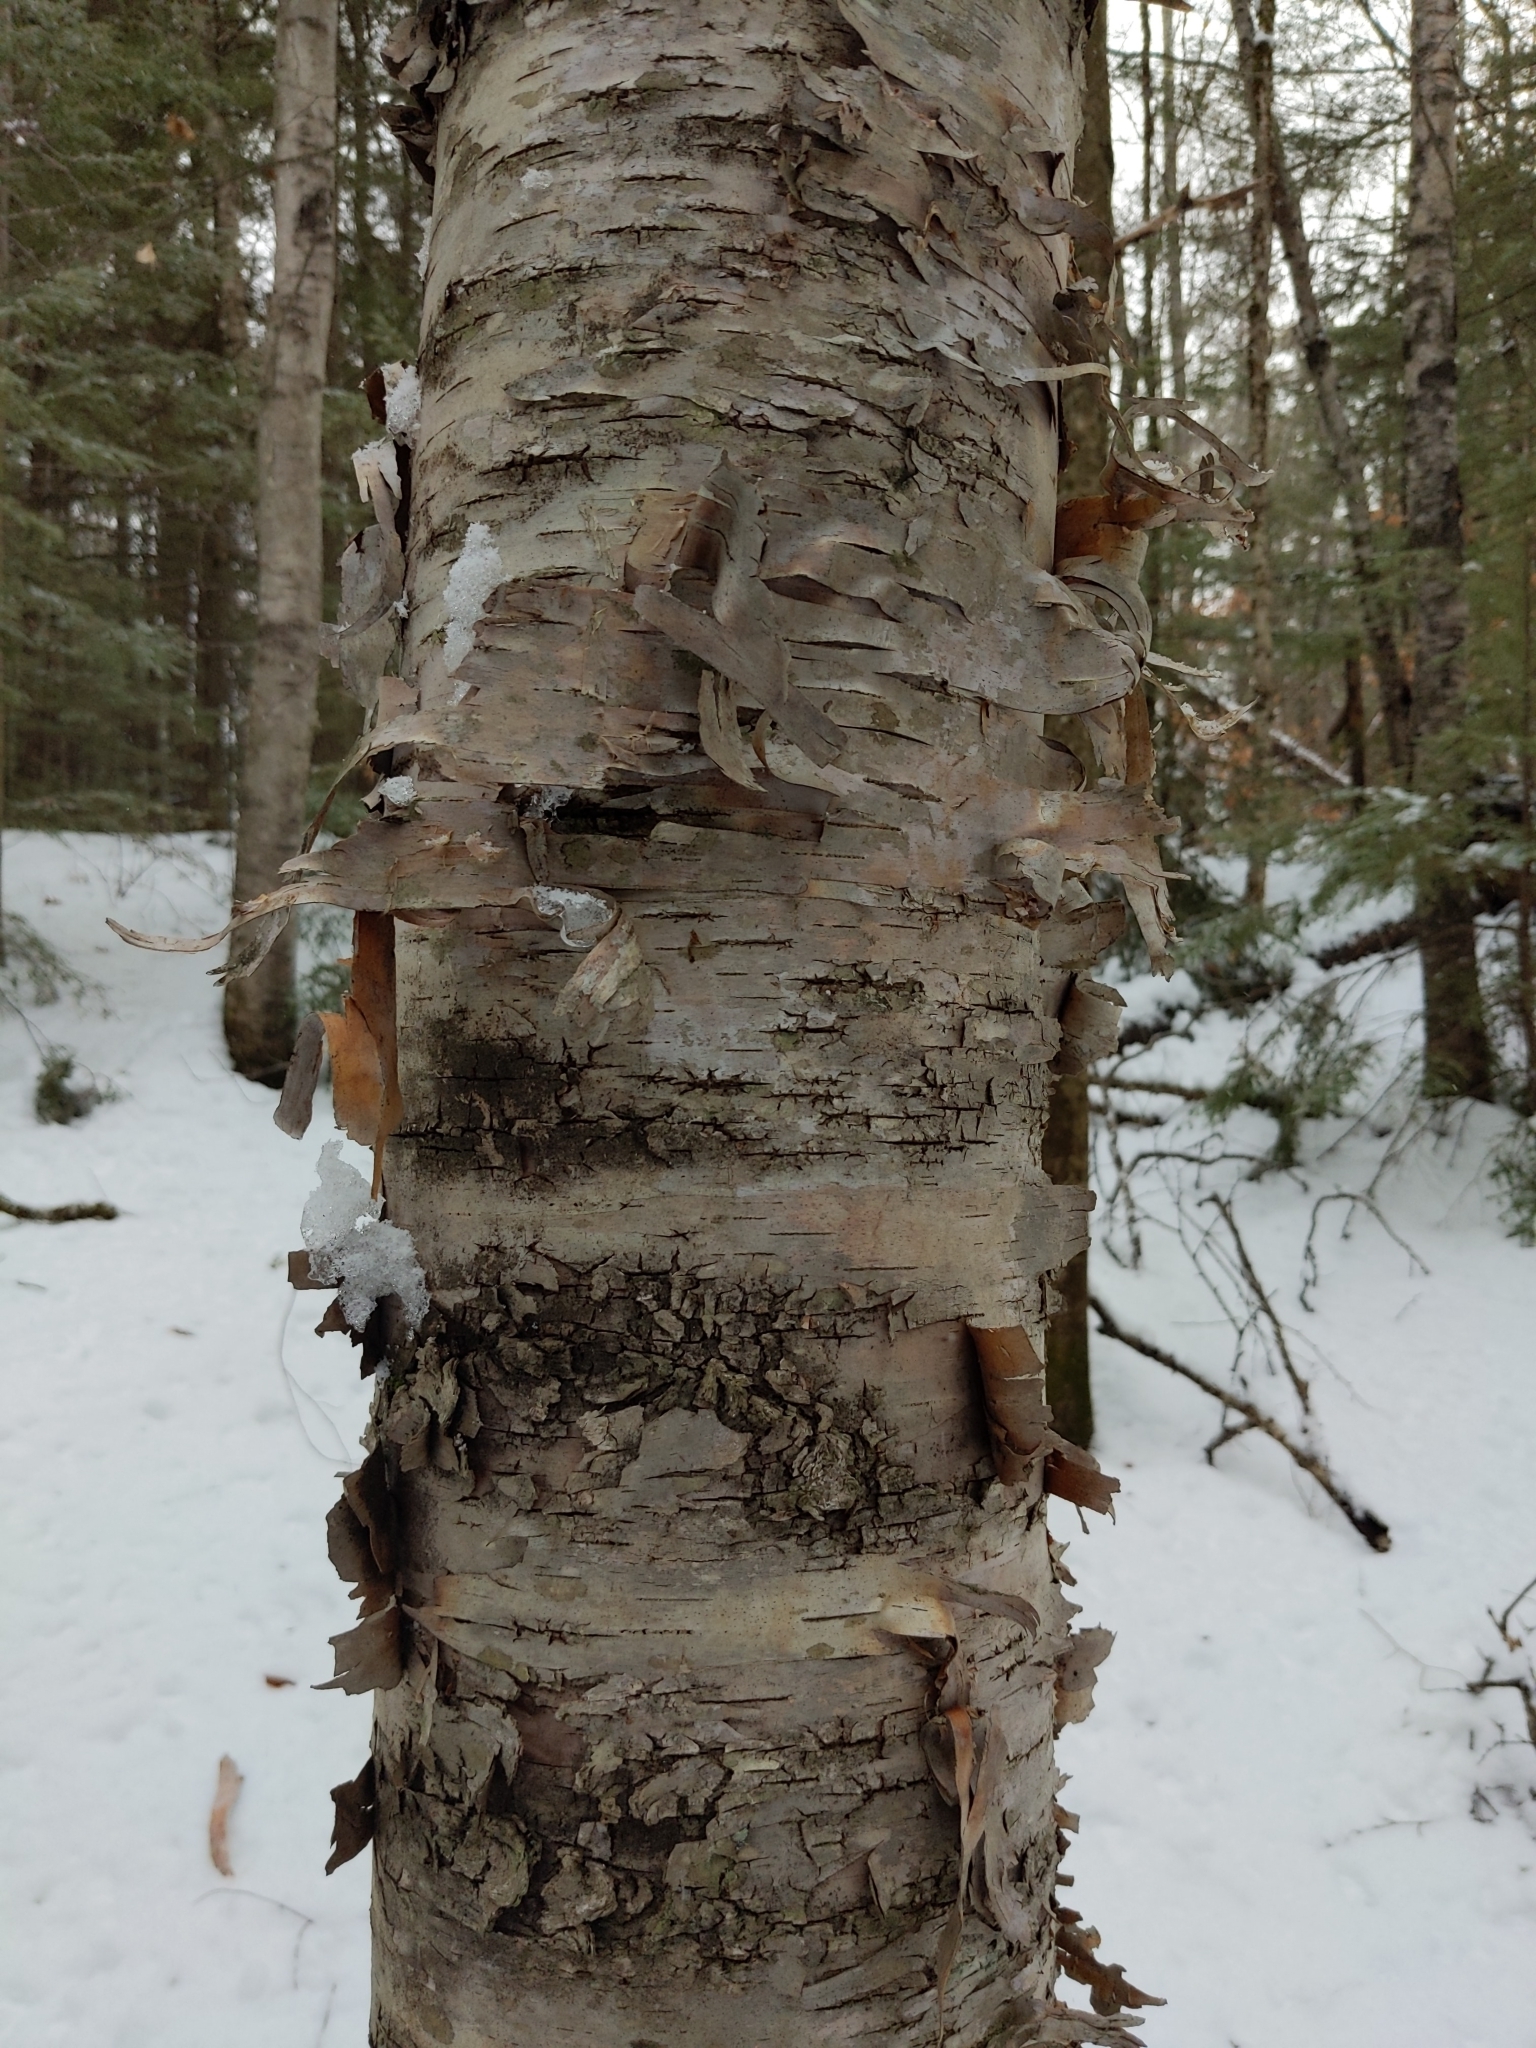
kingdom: Plantae
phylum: Tracheophyta
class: Magnoliopsida
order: Fagales
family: Betulaceae
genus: Betula
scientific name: Betula papyrifera
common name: Paper birch
